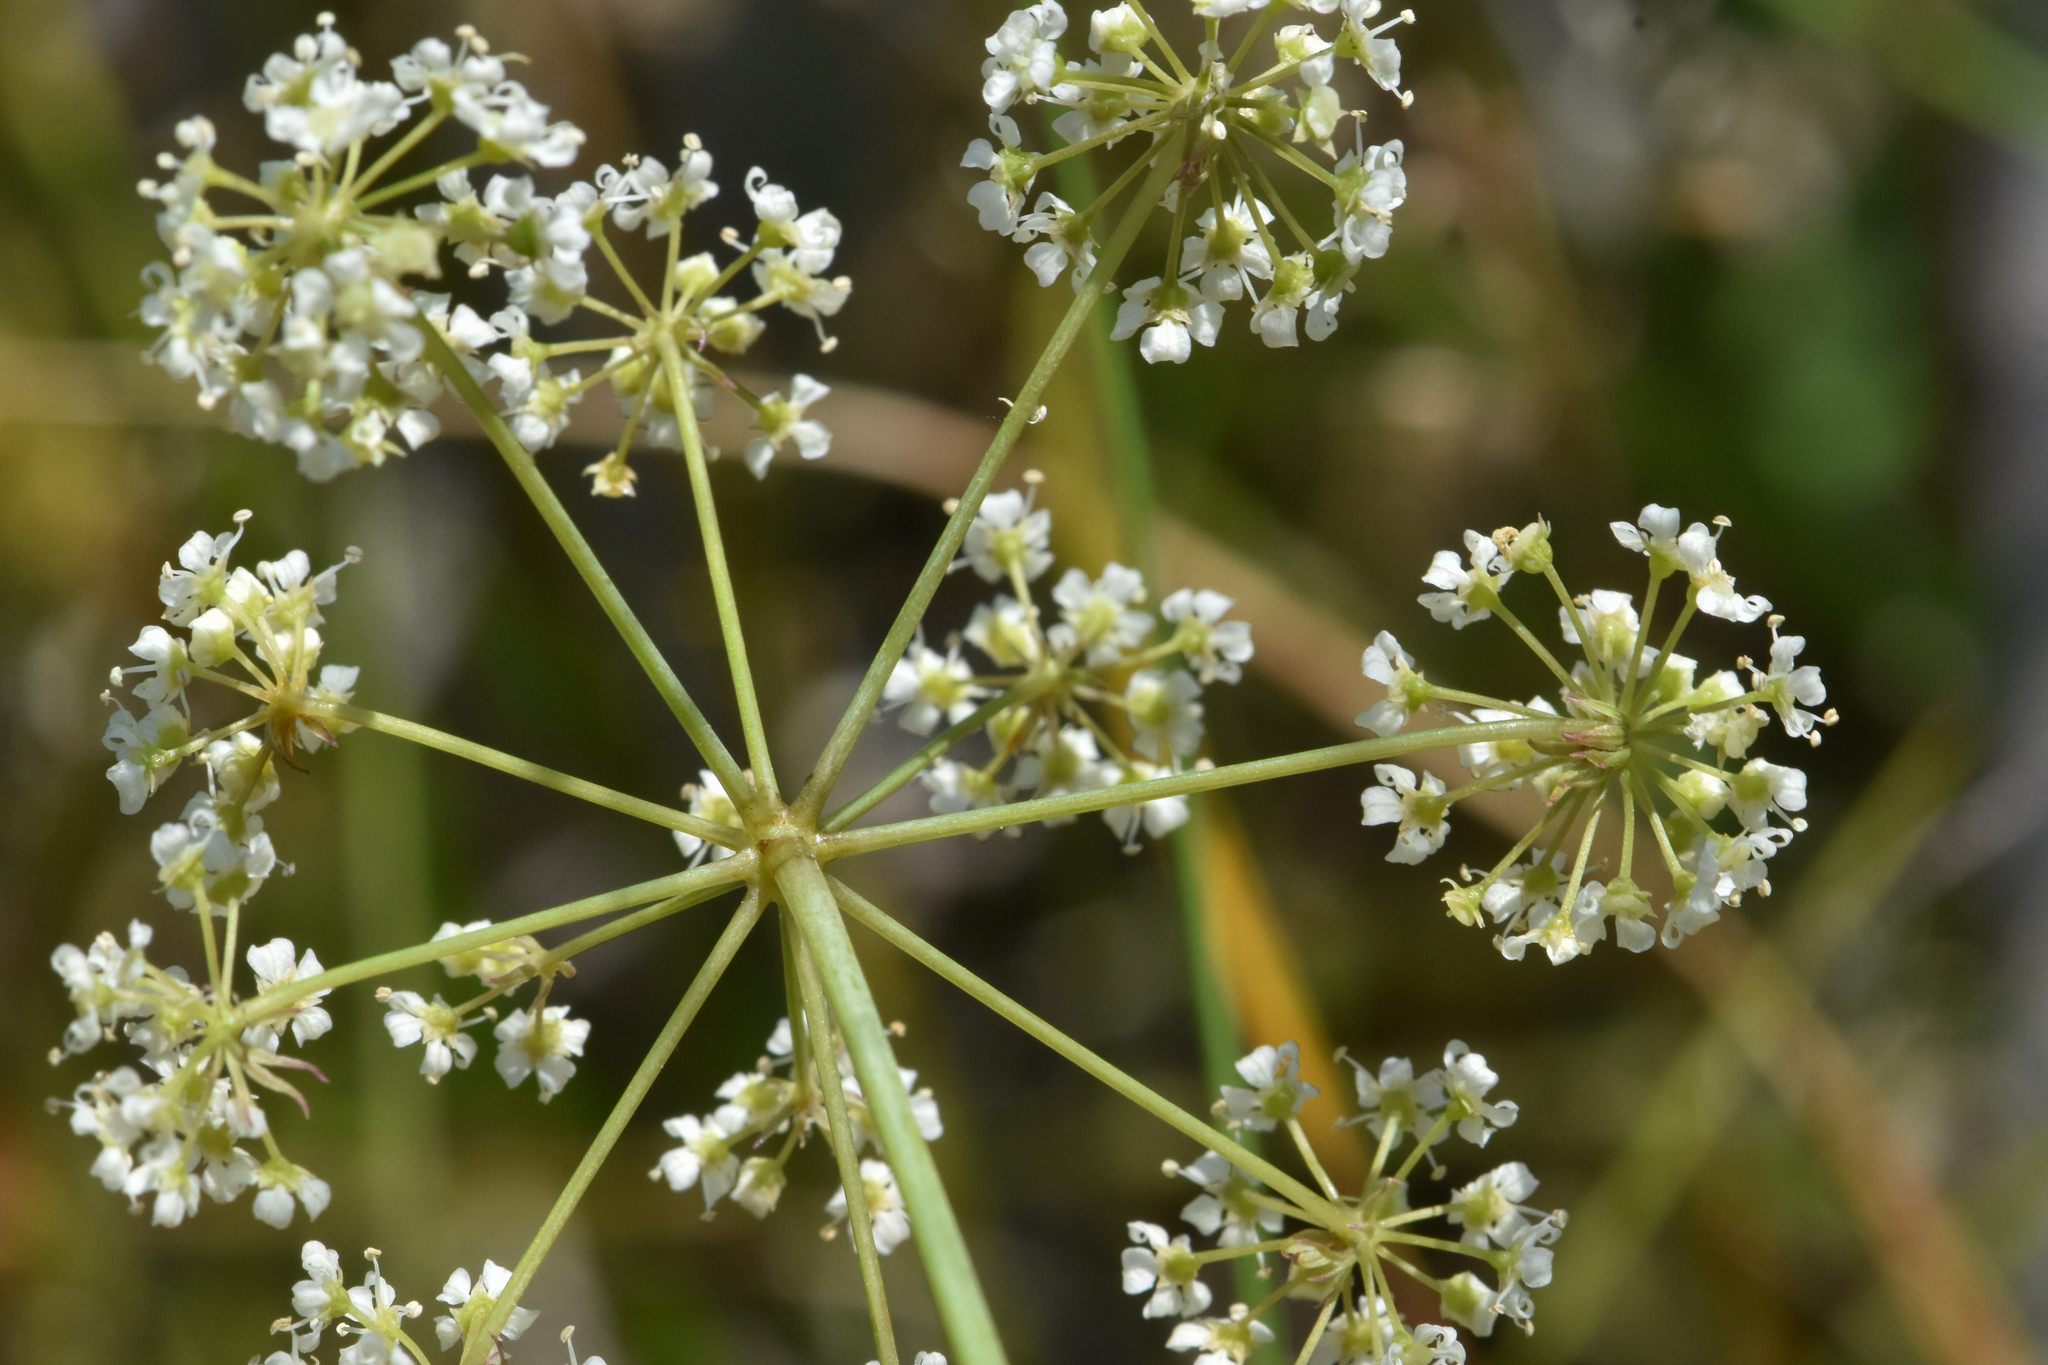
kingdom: Plantae
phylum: Tracheophyta
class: Magnoliopsida
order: Apiales
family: Apiaceae
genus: Cicuta
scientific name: Cicuta maculata
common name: Spotted cowbane
